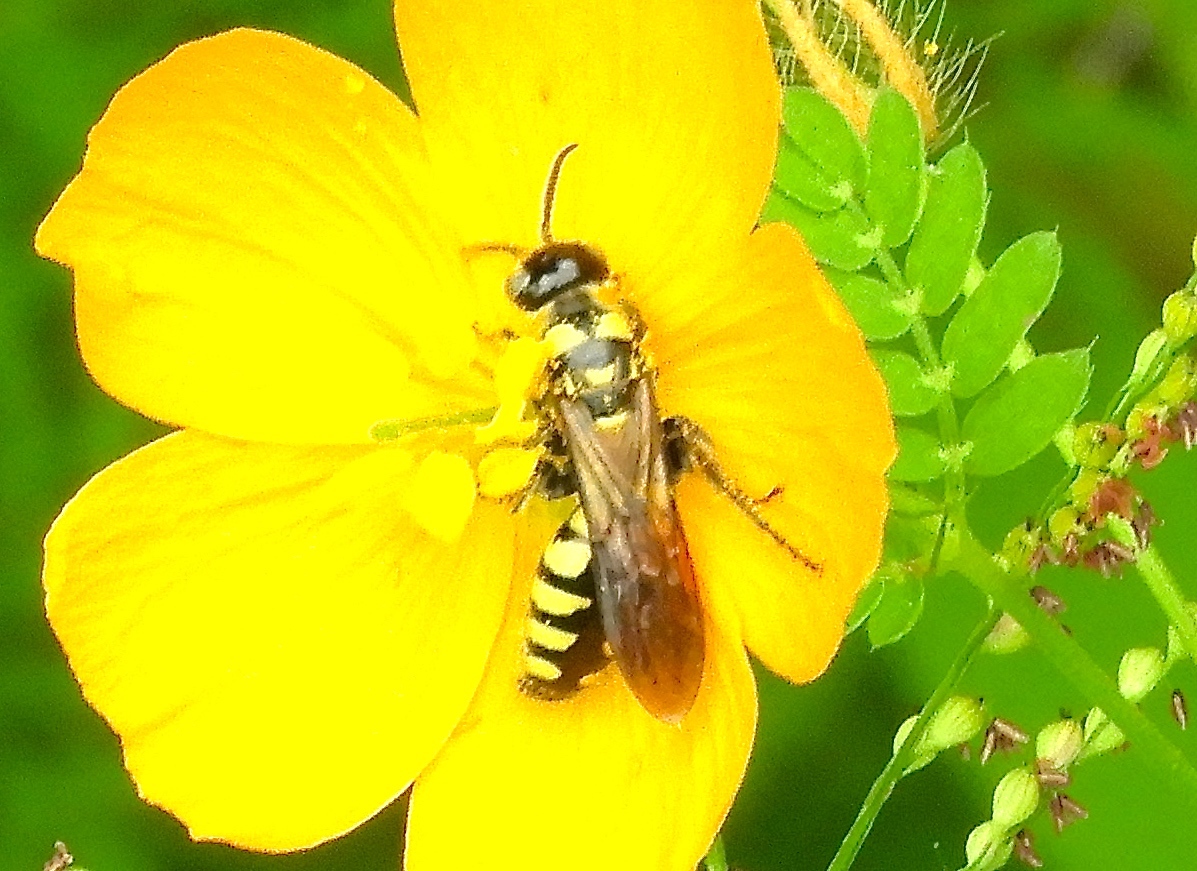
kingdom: Animalia
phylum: Arthropoda
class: Insecta
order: Hymenoptera
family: Tiphiidae
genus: Myzinum
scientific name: Myzinum
